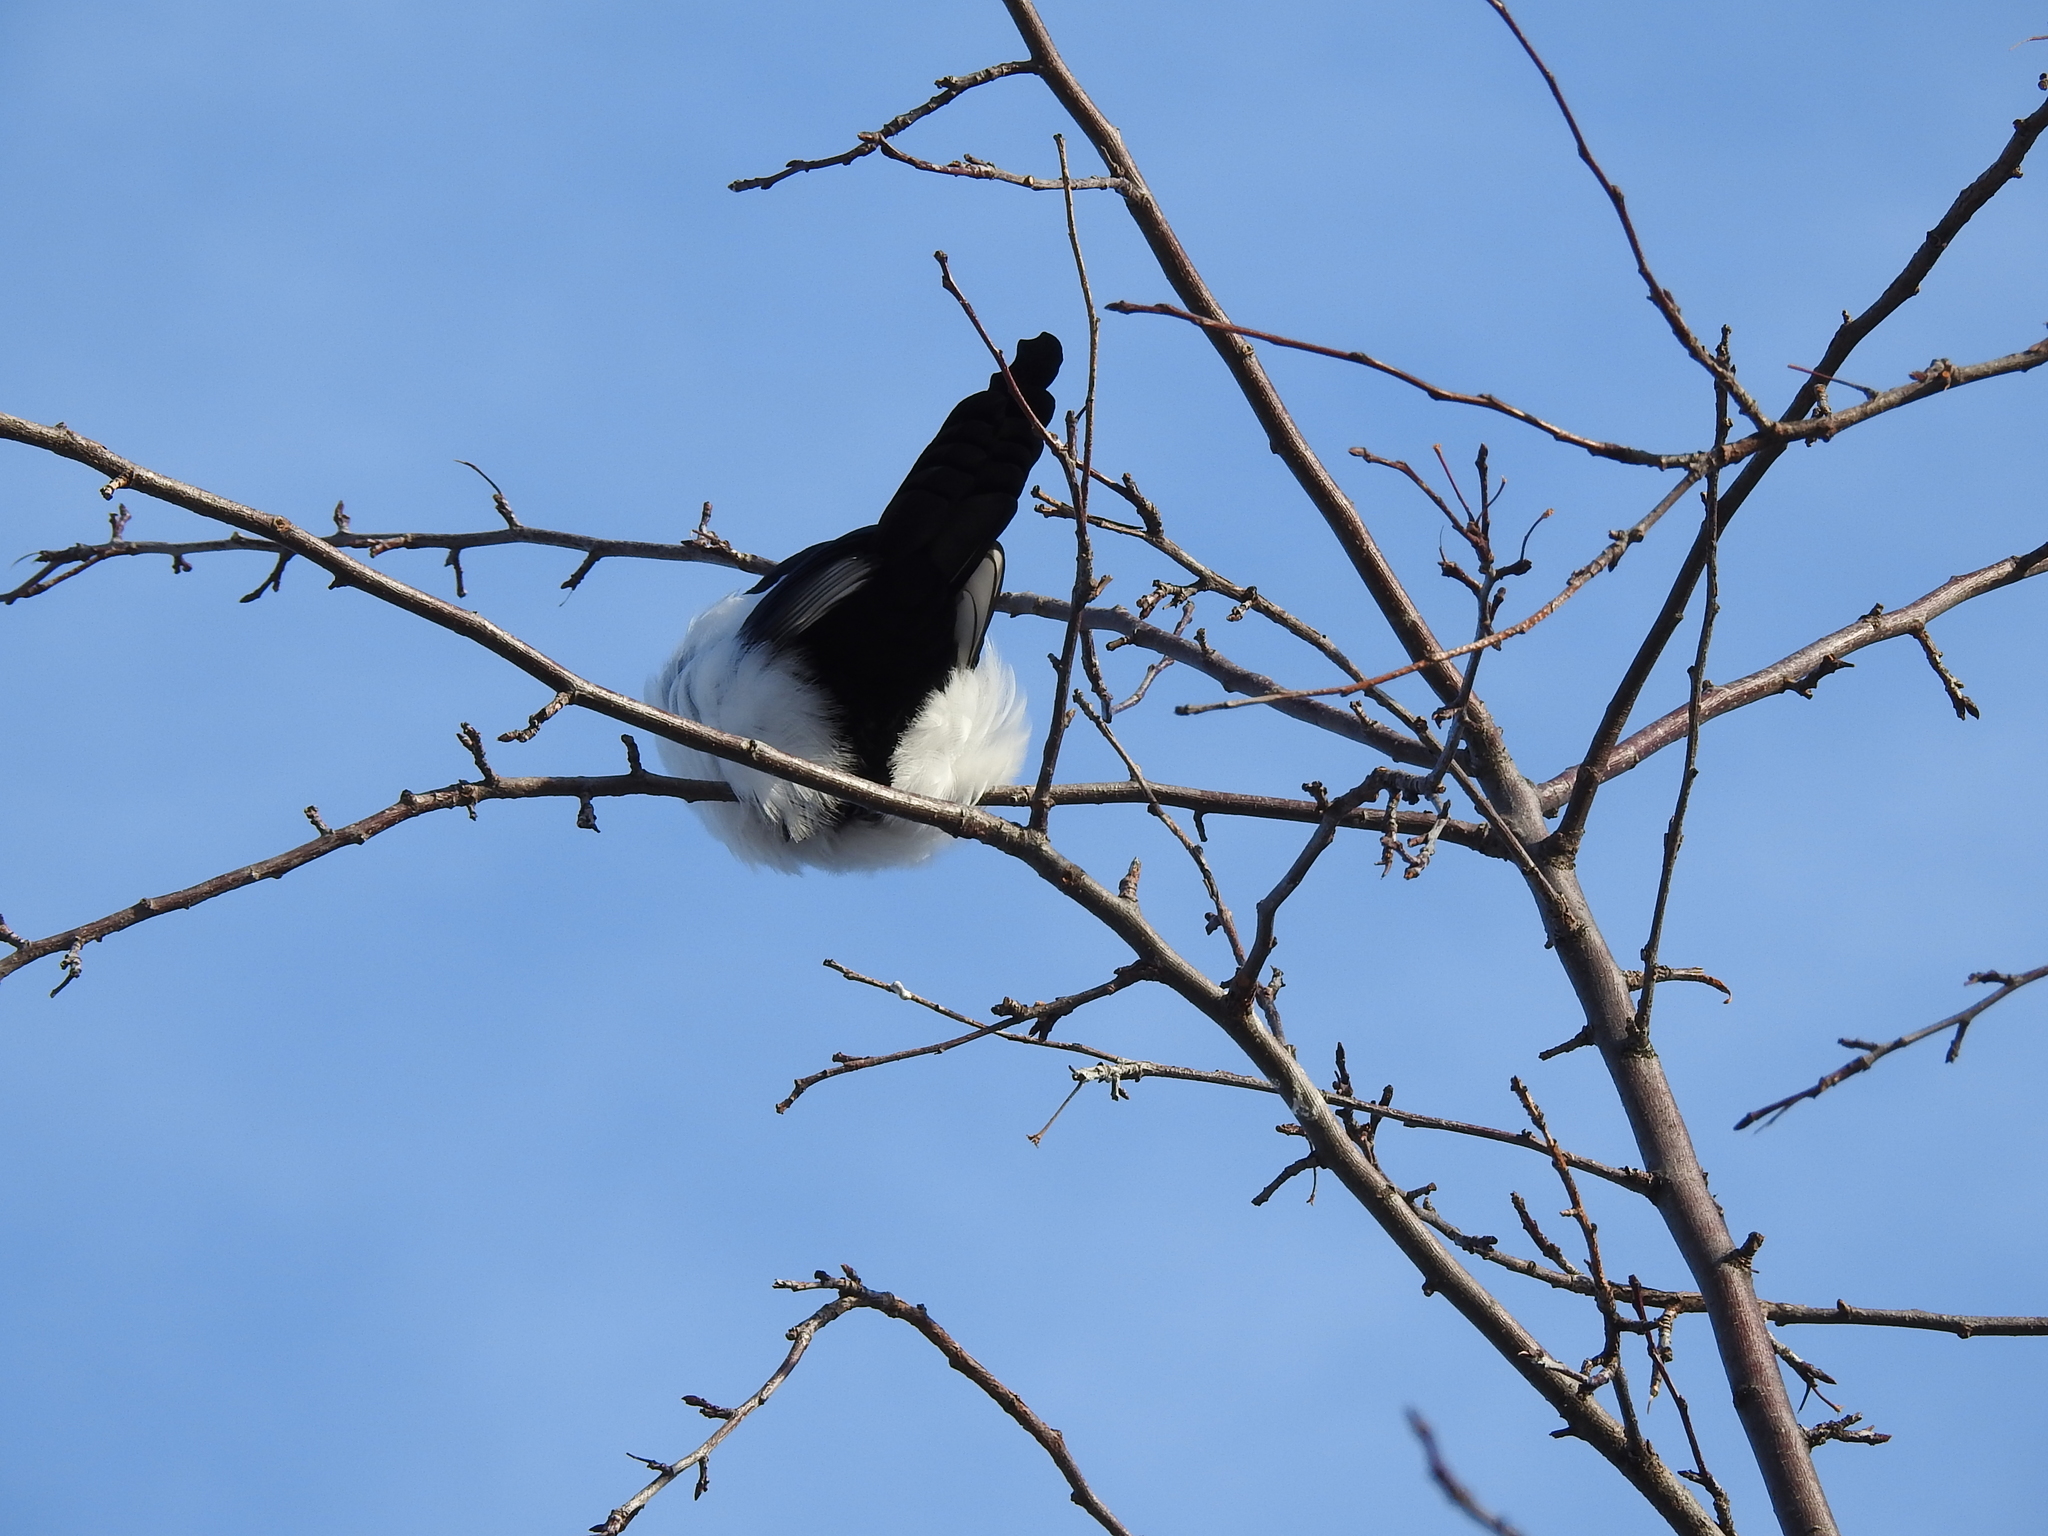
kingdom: Animalia
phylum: Chordata
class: Aves
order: Passeriformes
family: Corvidae
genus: Pica
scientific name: Pica pica
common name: Eurasian magpie
